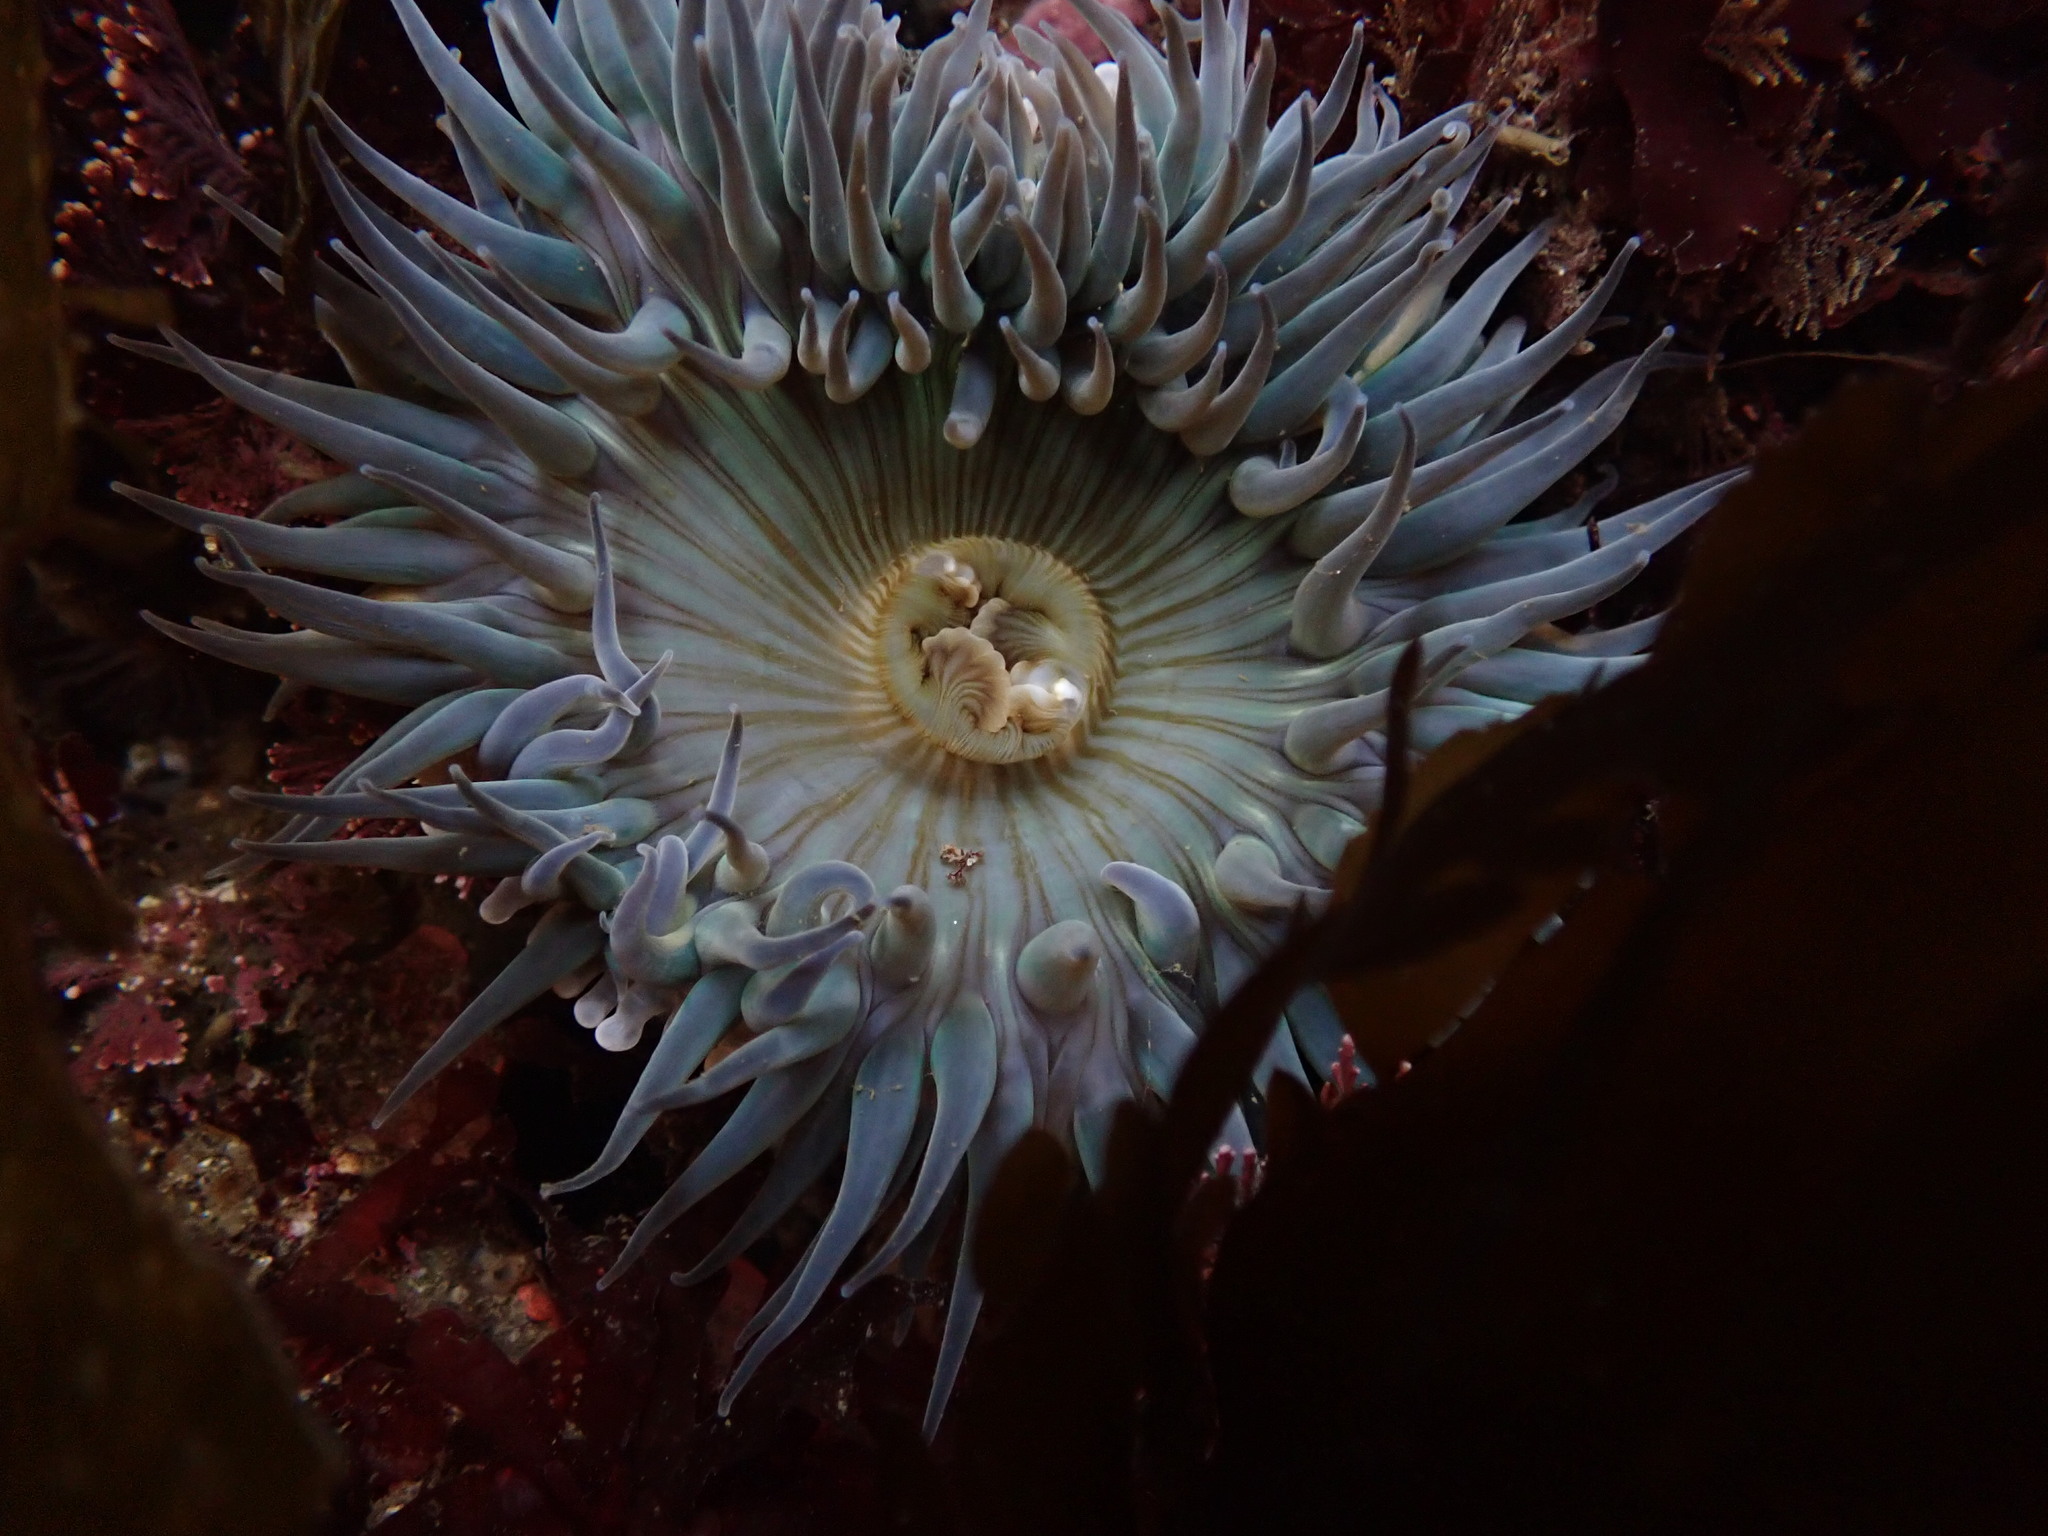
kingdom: Animalia
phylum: Cnidaria
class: Anthozoa
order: Actiniaria
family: Actiniidae
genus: Anthopleura
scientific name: Anthopleura sola
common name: Sun anemone
